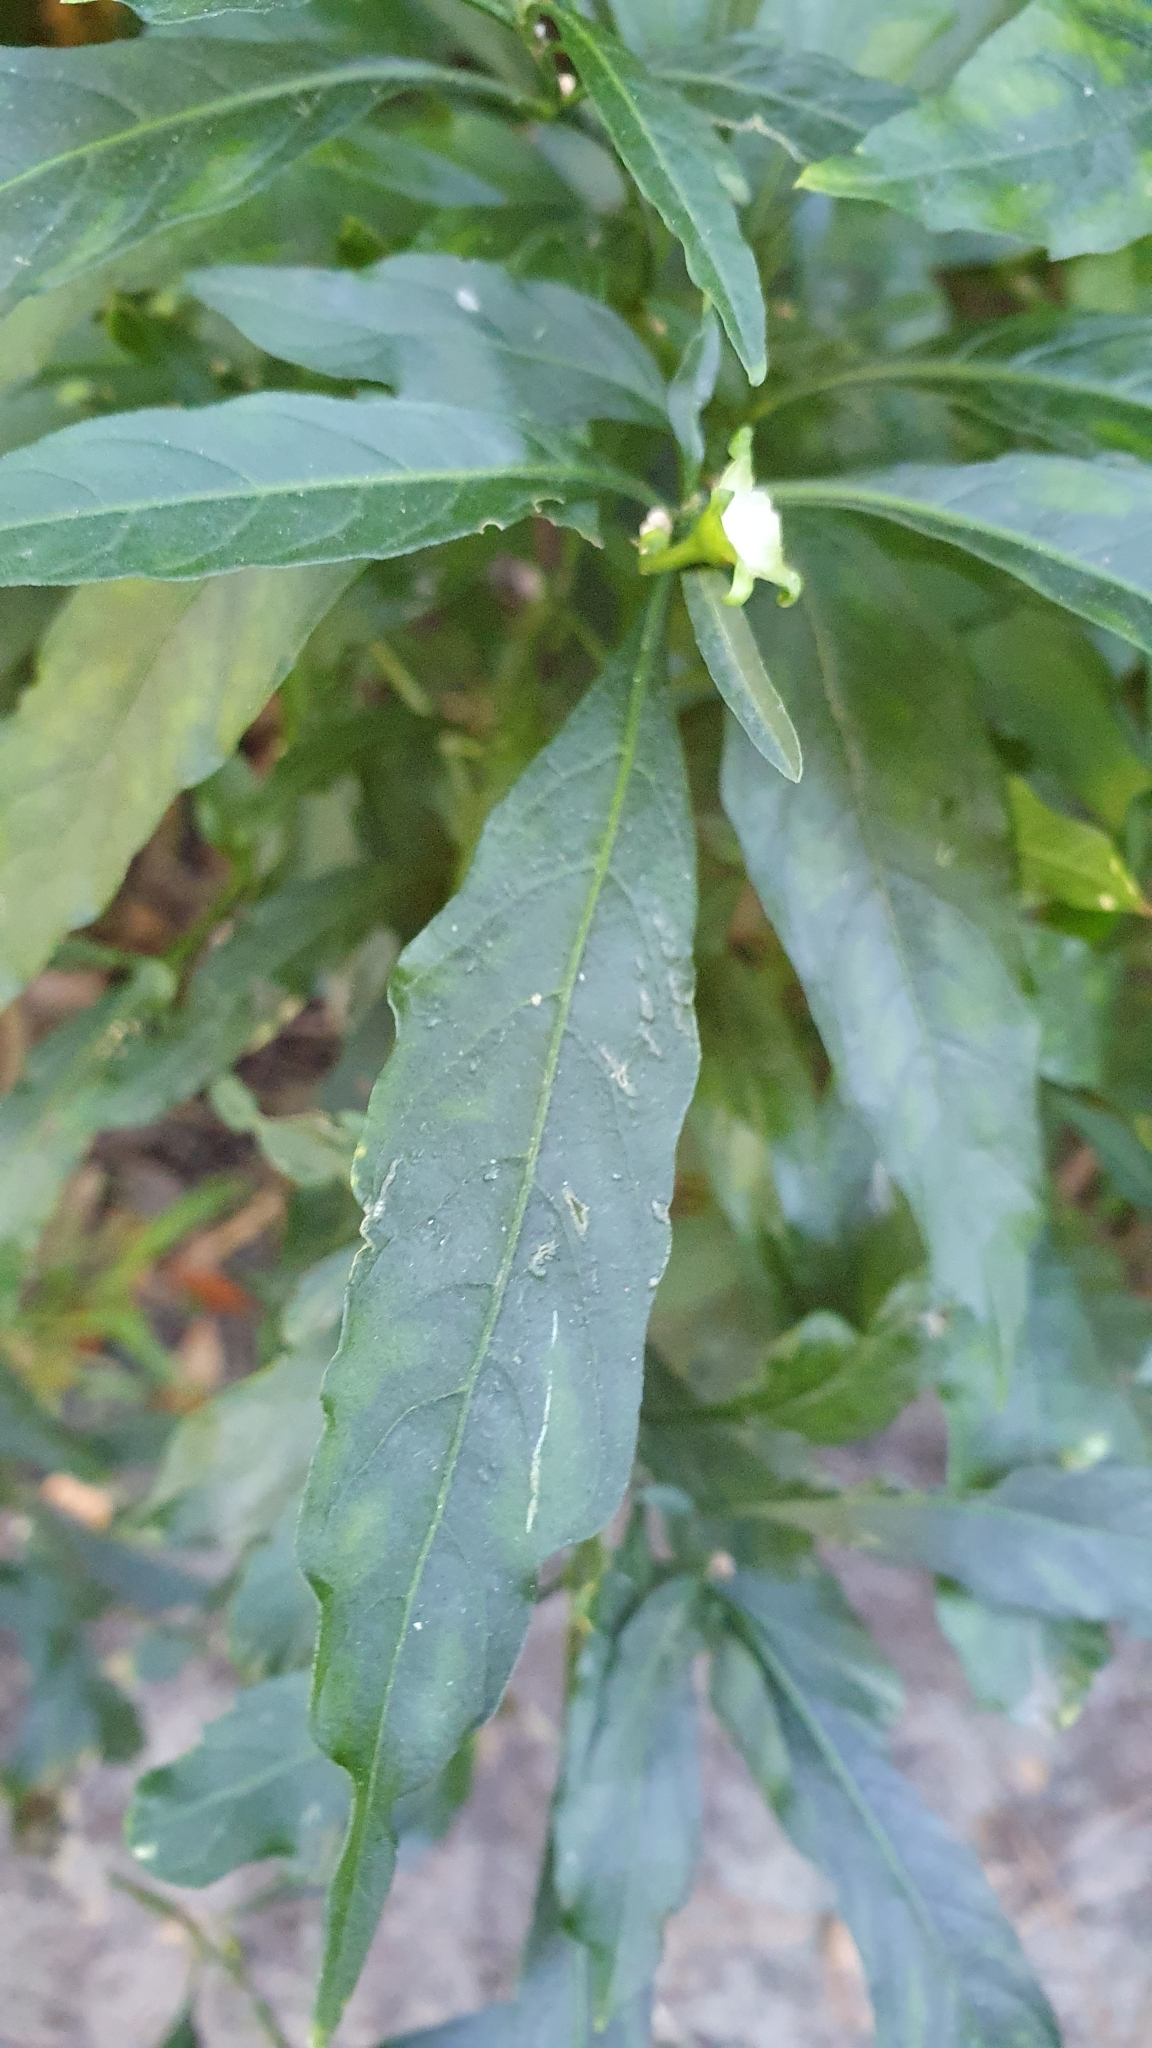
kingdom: Plantae
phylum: Tracheophyta
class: Magnoliopsida
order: Solanales
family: Solanaceae
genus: Solanum
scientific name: Solanum pseudocapsicum
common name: Jerusalem cherry
